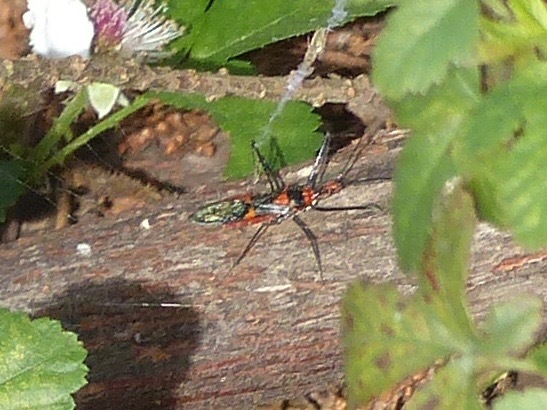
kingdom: Animalia
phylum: Arthropoda
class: Insecta
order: Hemiptera
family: Reduviidae
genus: Zelus
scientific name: Zelus longipes
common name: Milkweed assassin bug
